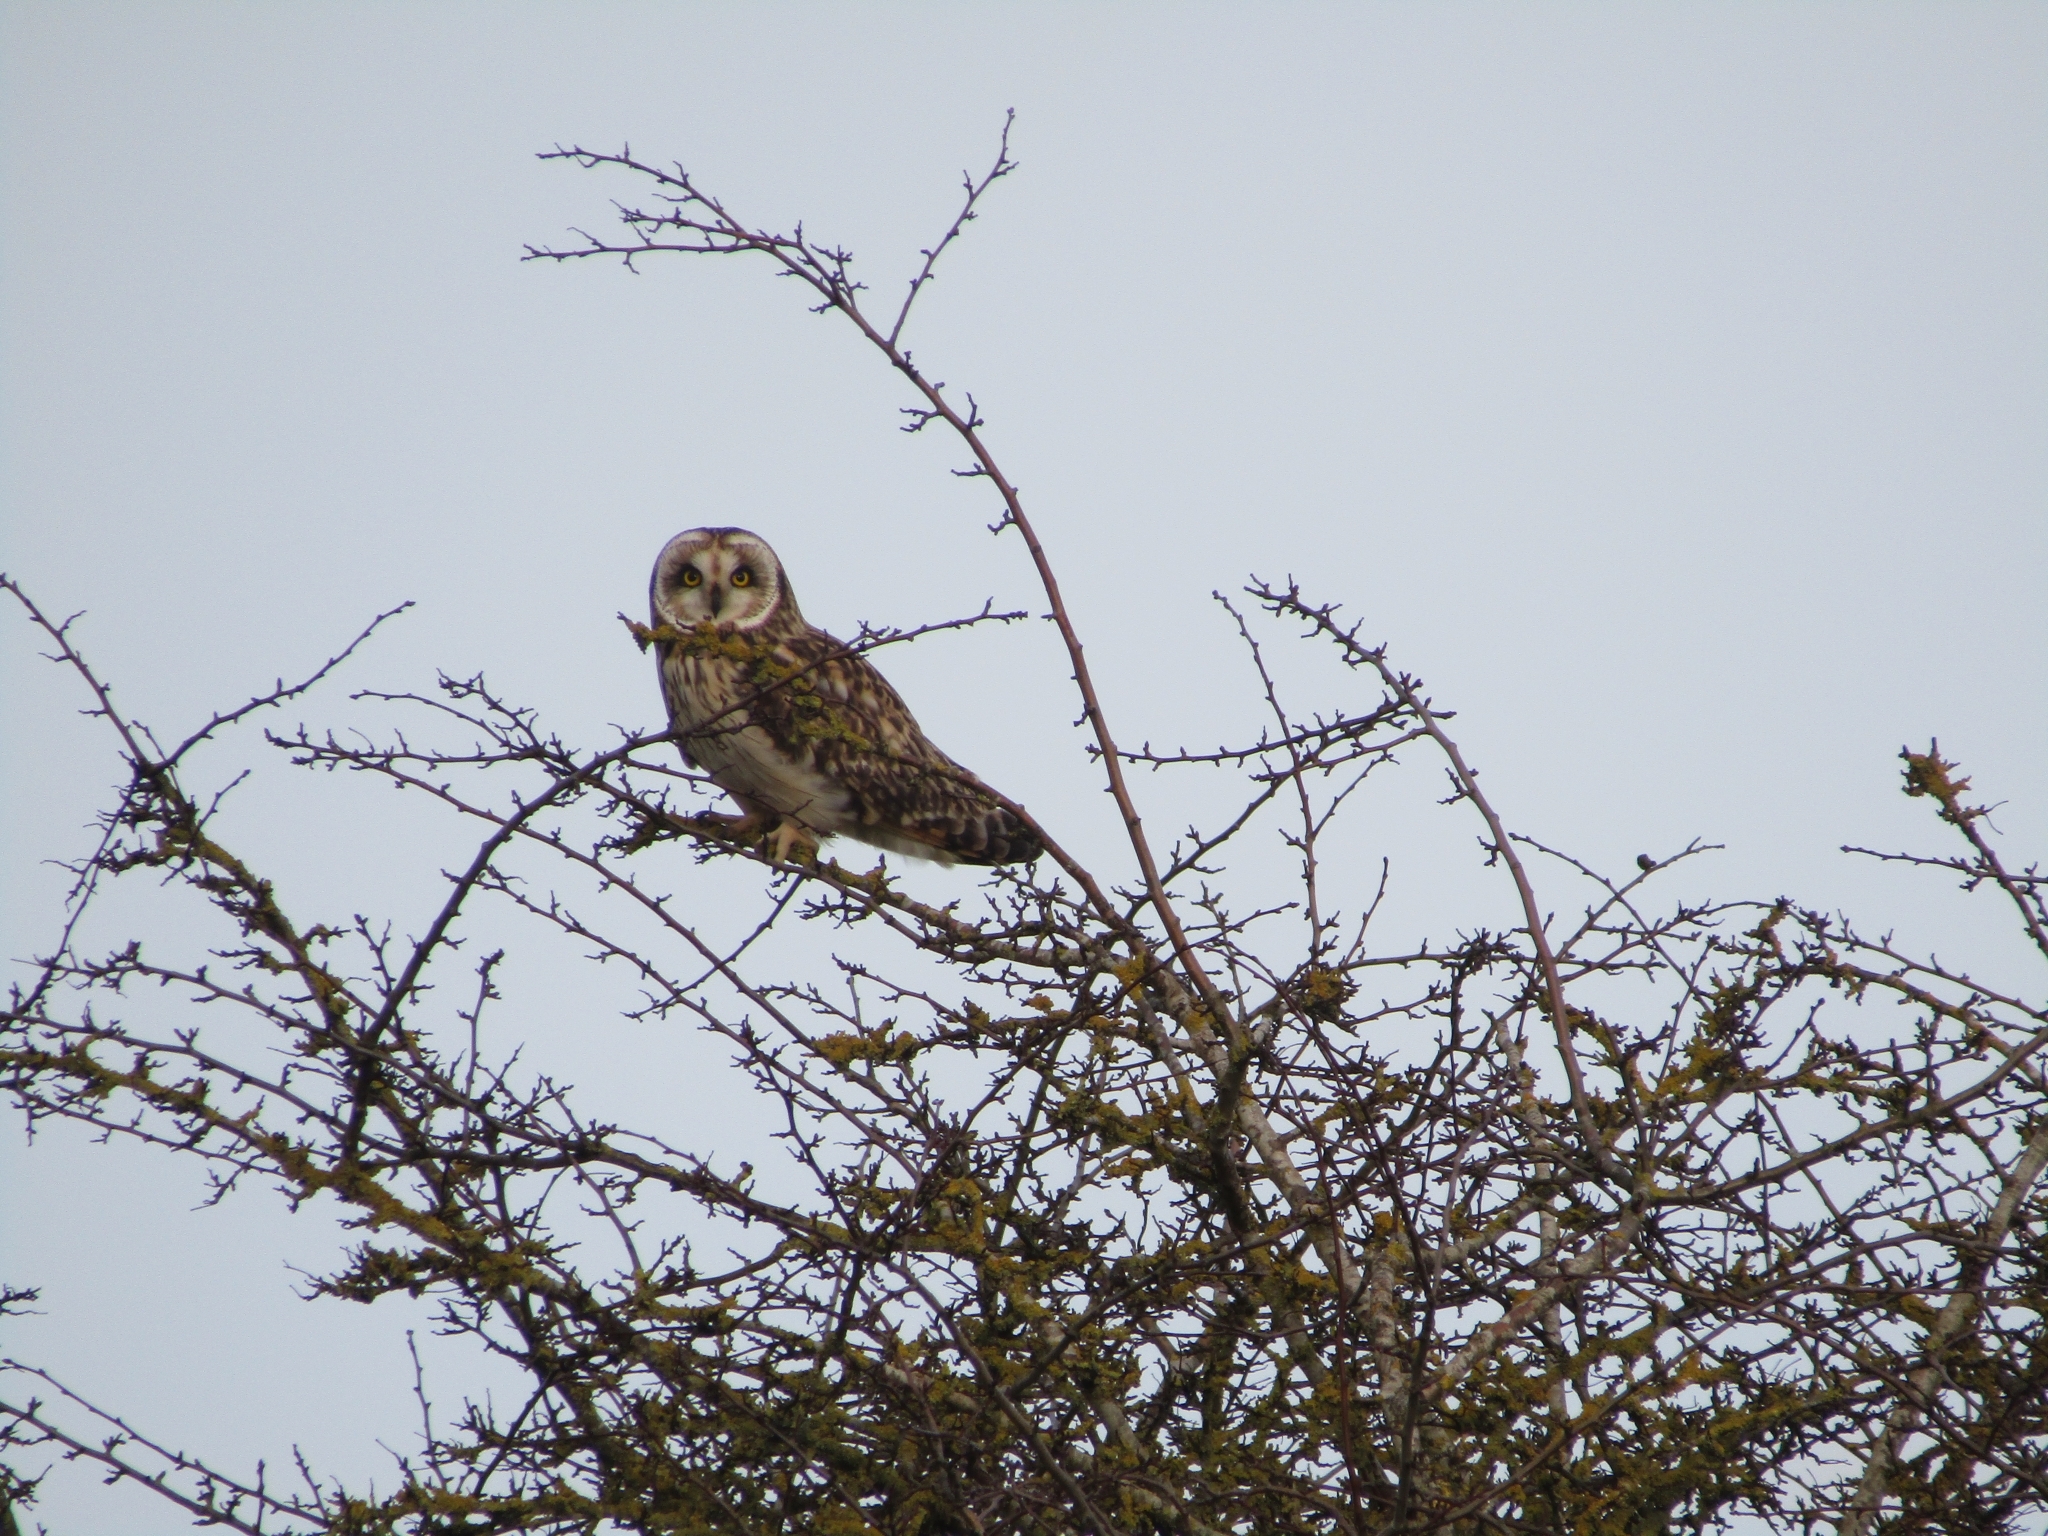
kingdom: Animalia
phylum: Chordata
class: Aves
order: Strigiformes
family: Strigidae
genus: Asio
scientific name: Asio flammeus
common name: Short-eared owl
